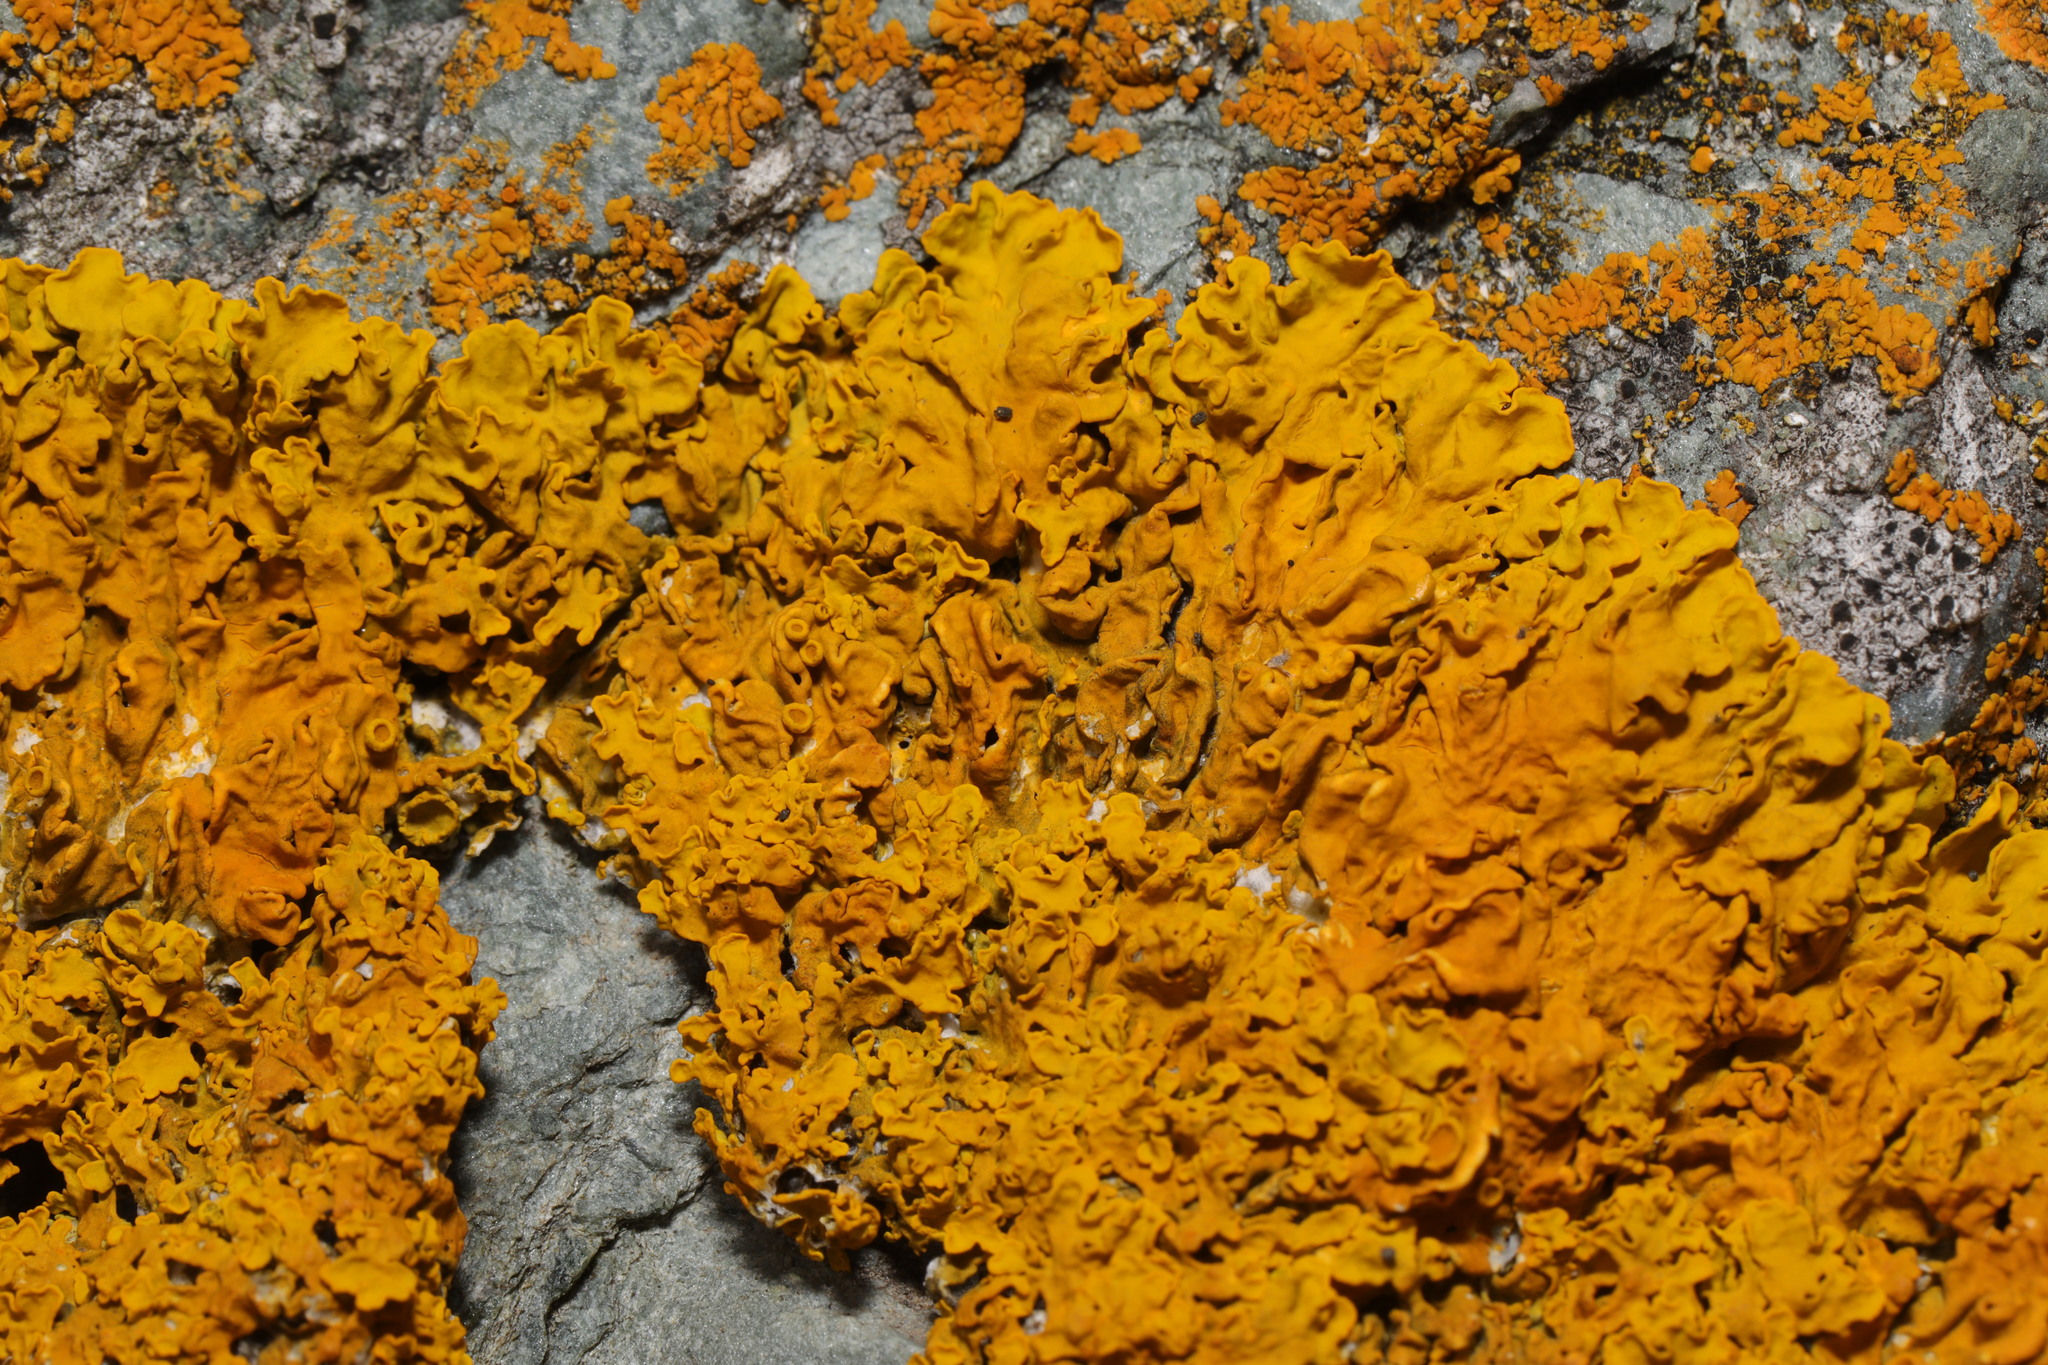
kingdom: Fungi
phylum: Ascomycota
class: Lecanoromycetes
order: Teloschistales
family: Teloschistaceae
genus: Xanthoria
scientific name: Xanthoria calcicola
